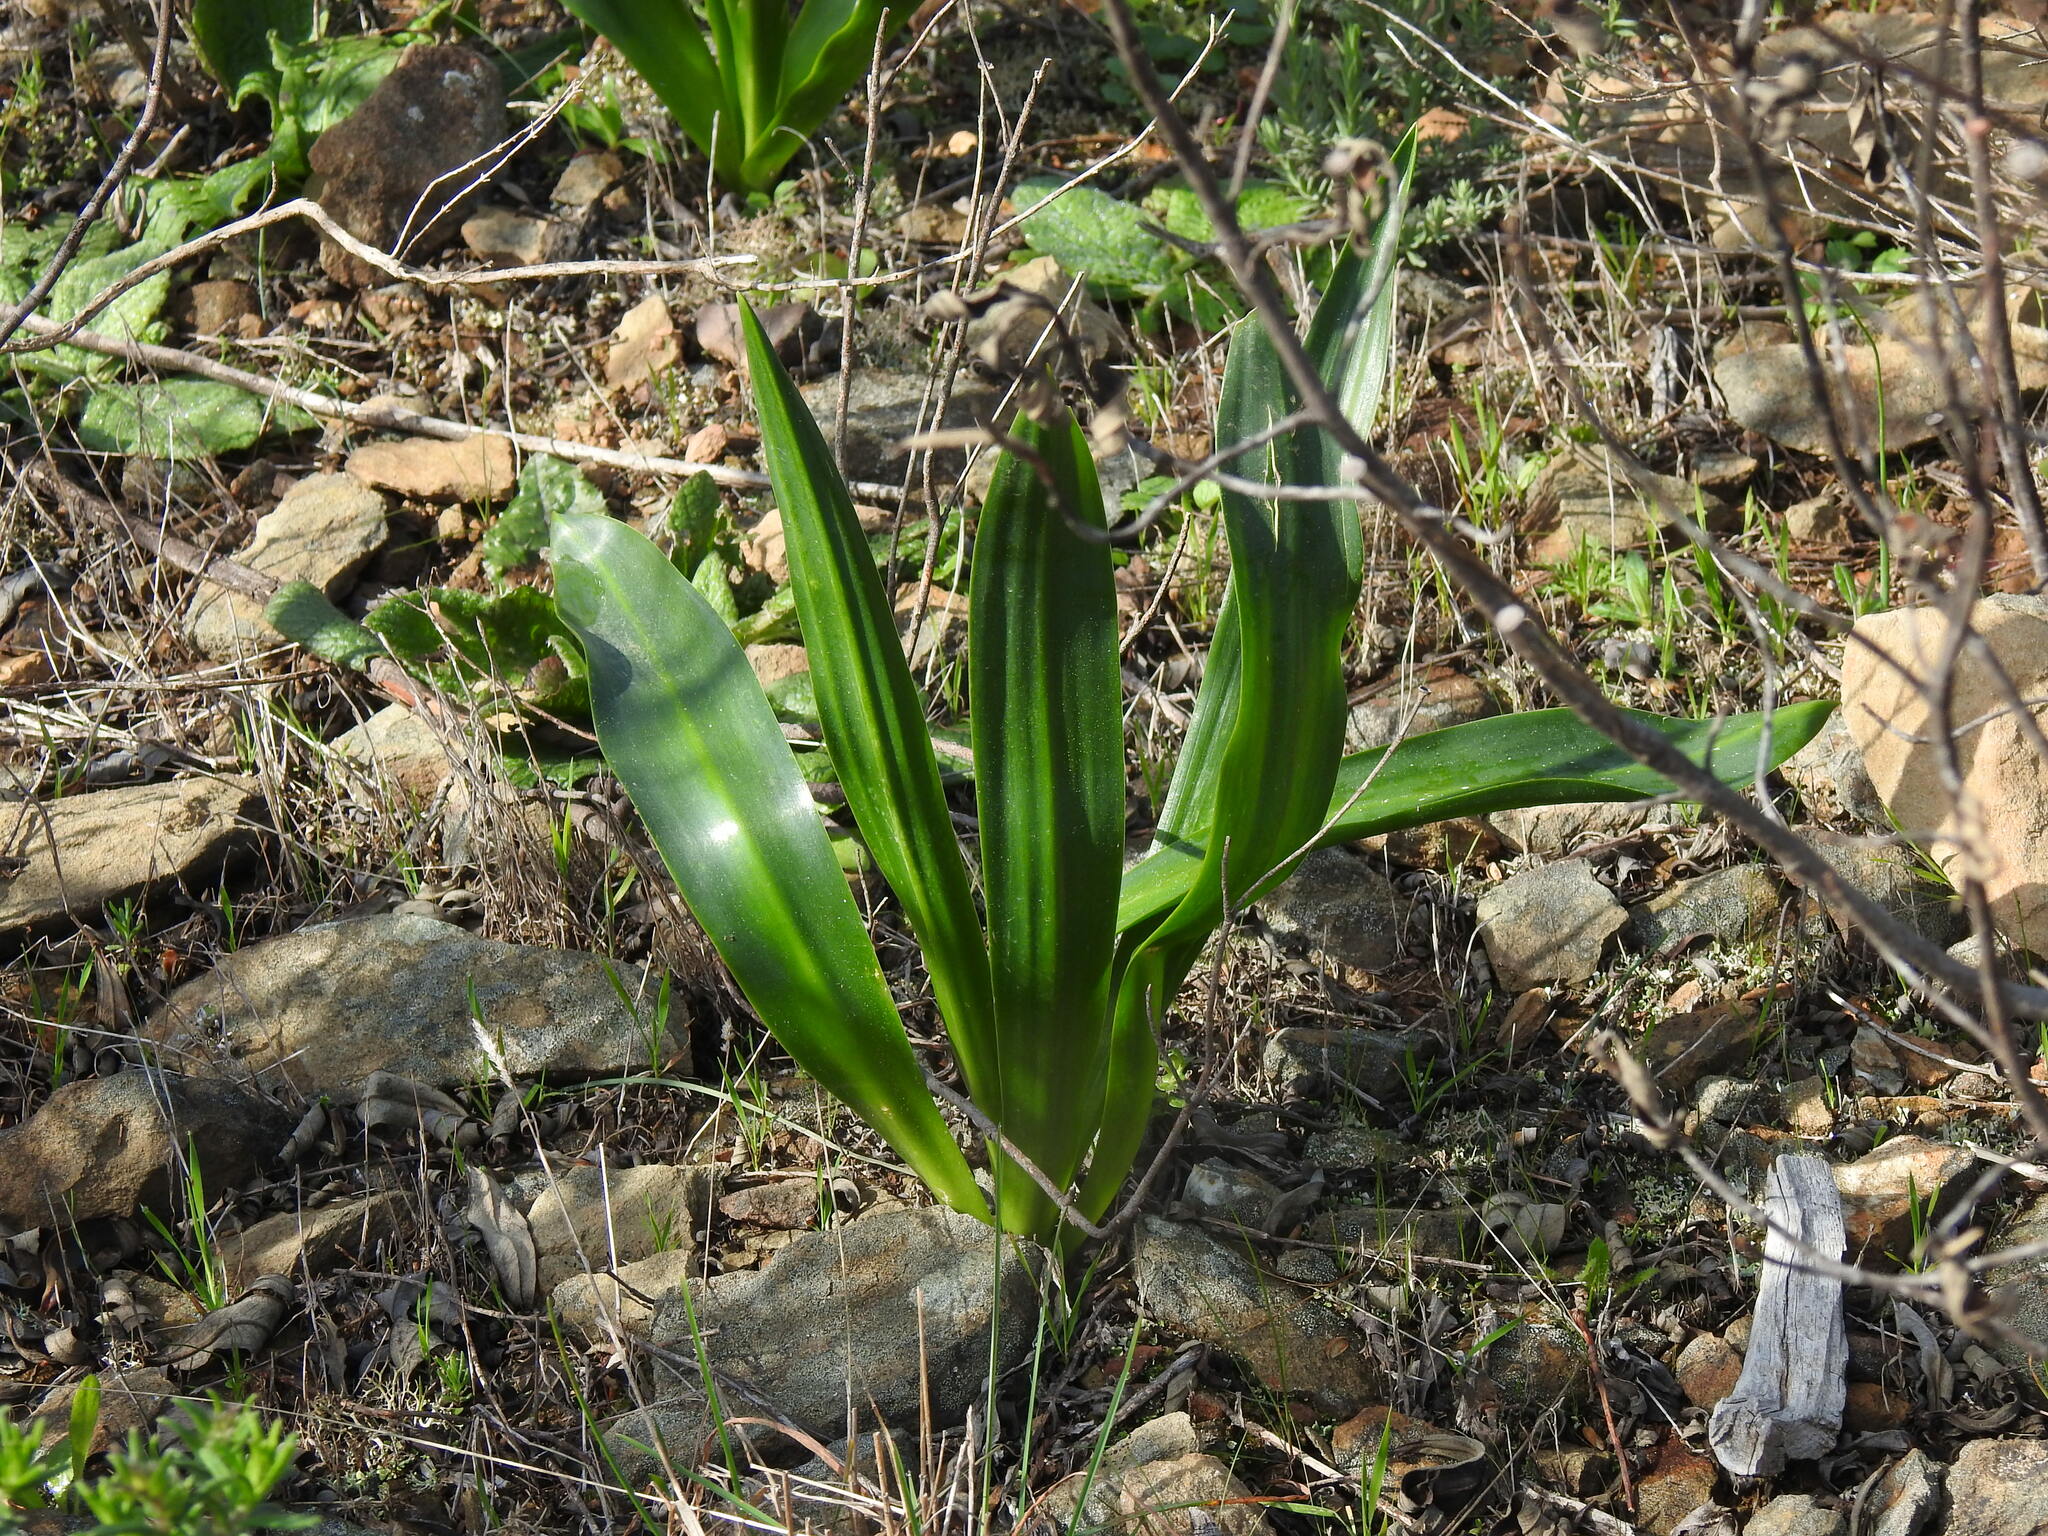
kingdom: Plantae
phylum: Tracheophyta
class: Liliopsida
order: Asparagales
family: Asparagaceae
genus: Drimia
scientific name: Drimia maritima
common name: Maritime squill
